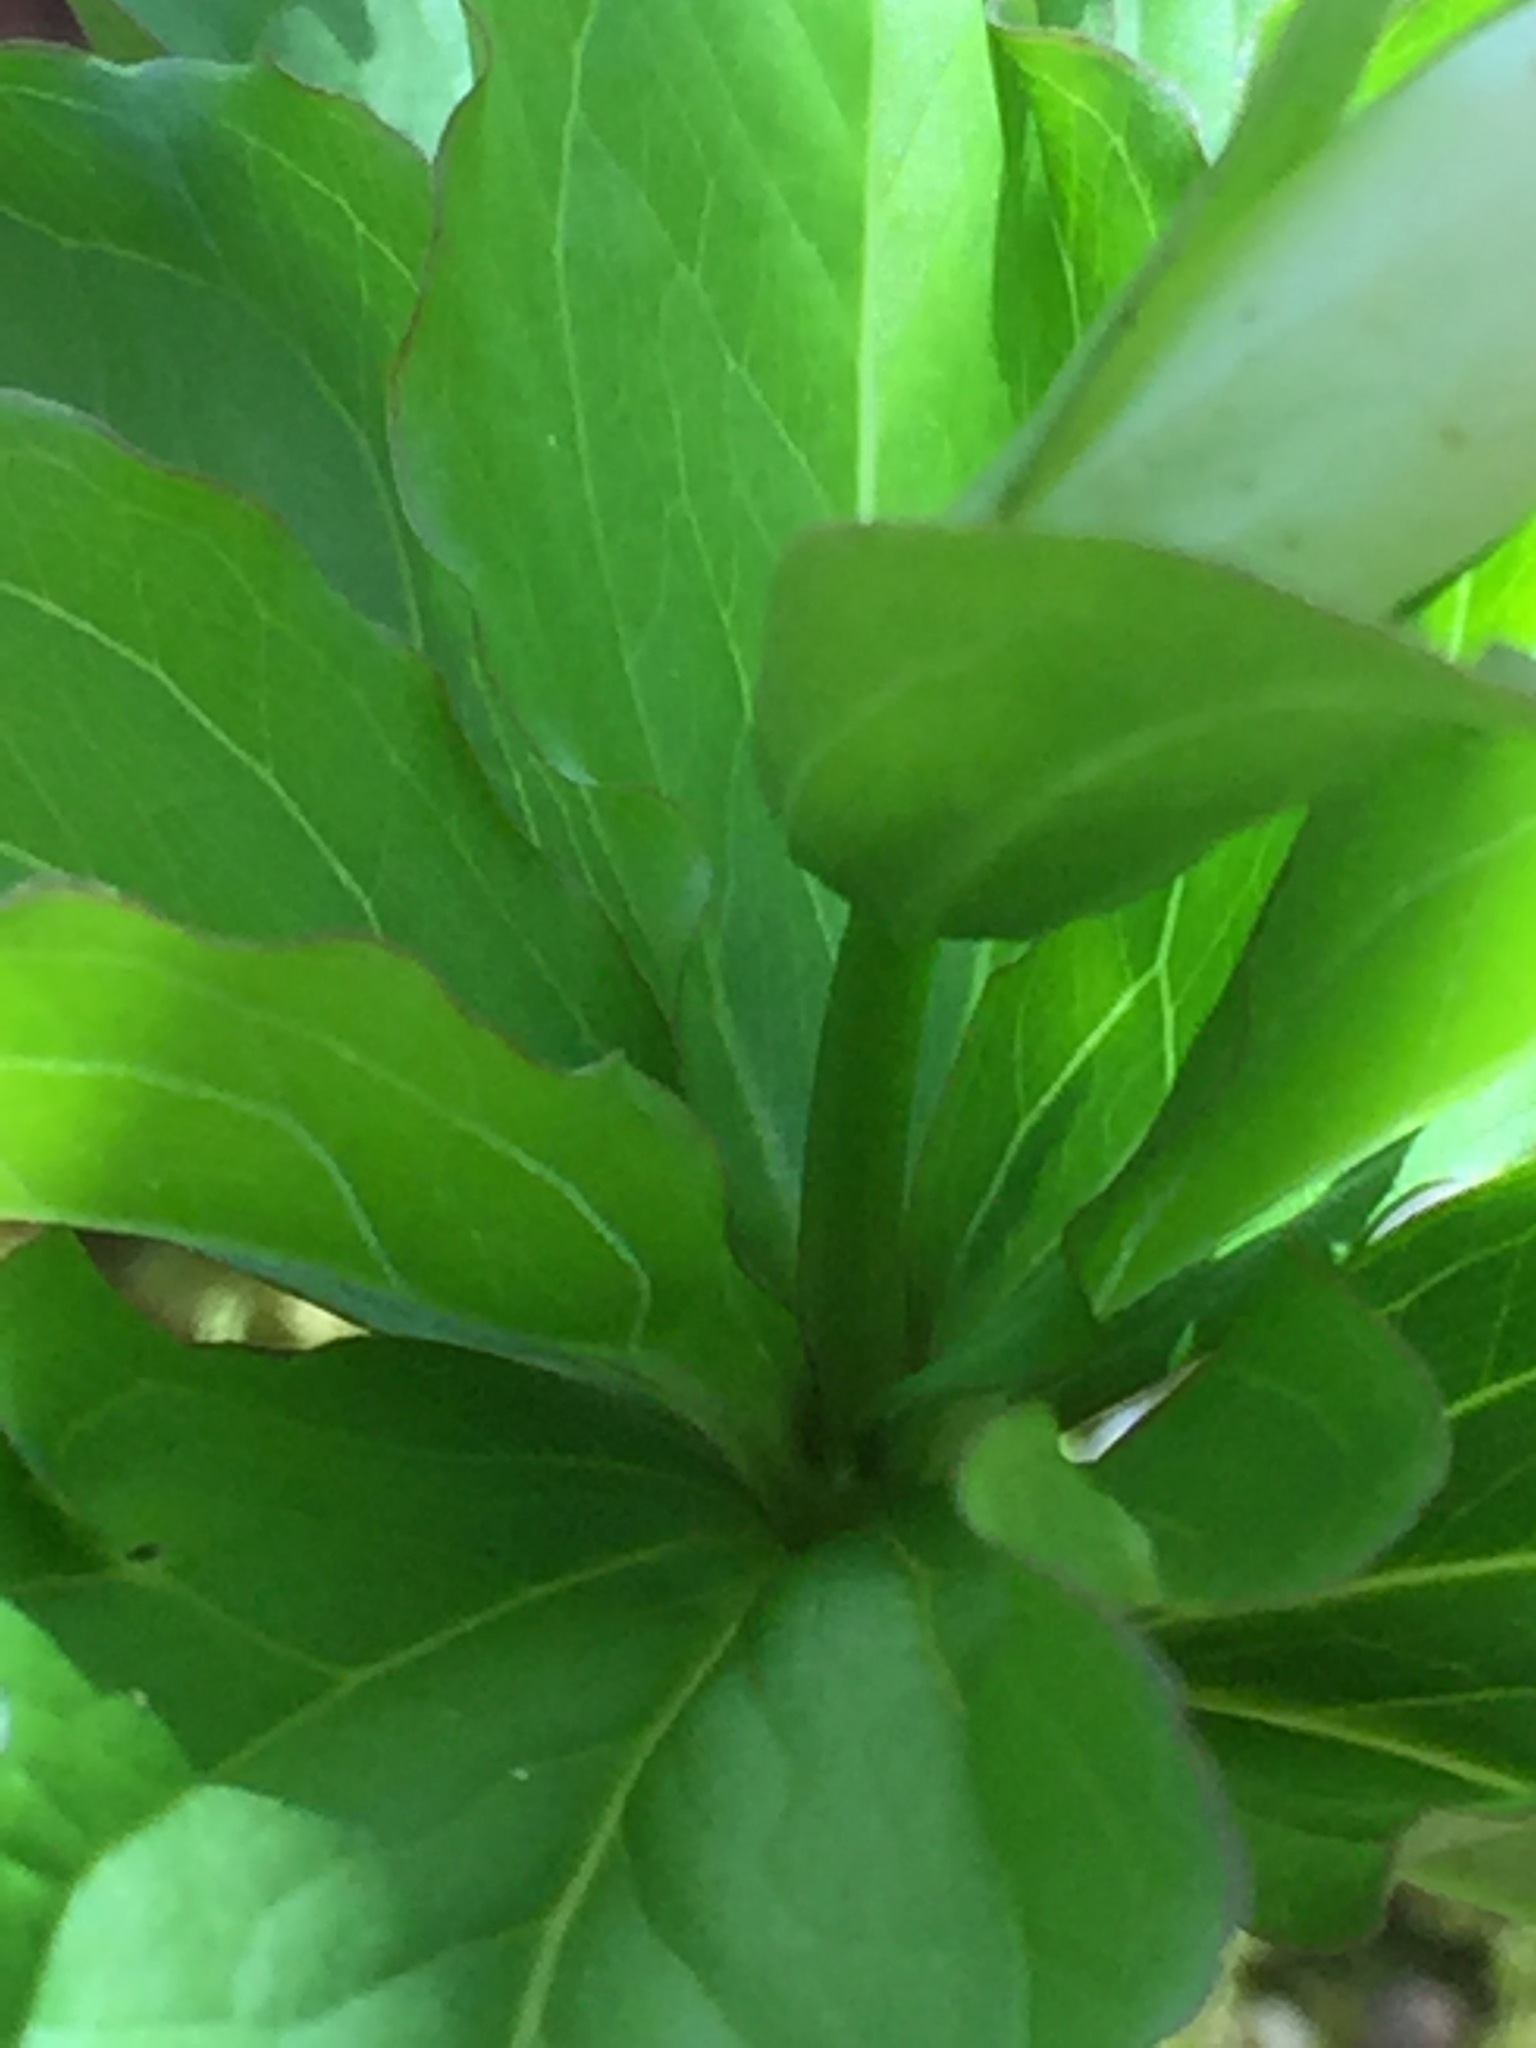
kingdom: Plantae
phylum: Tracheophyta
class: Liliopsida
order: Liliales
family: Melanthiaceae
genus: Trillium
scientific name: Trillium grandiflorum
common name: Great white trillium
